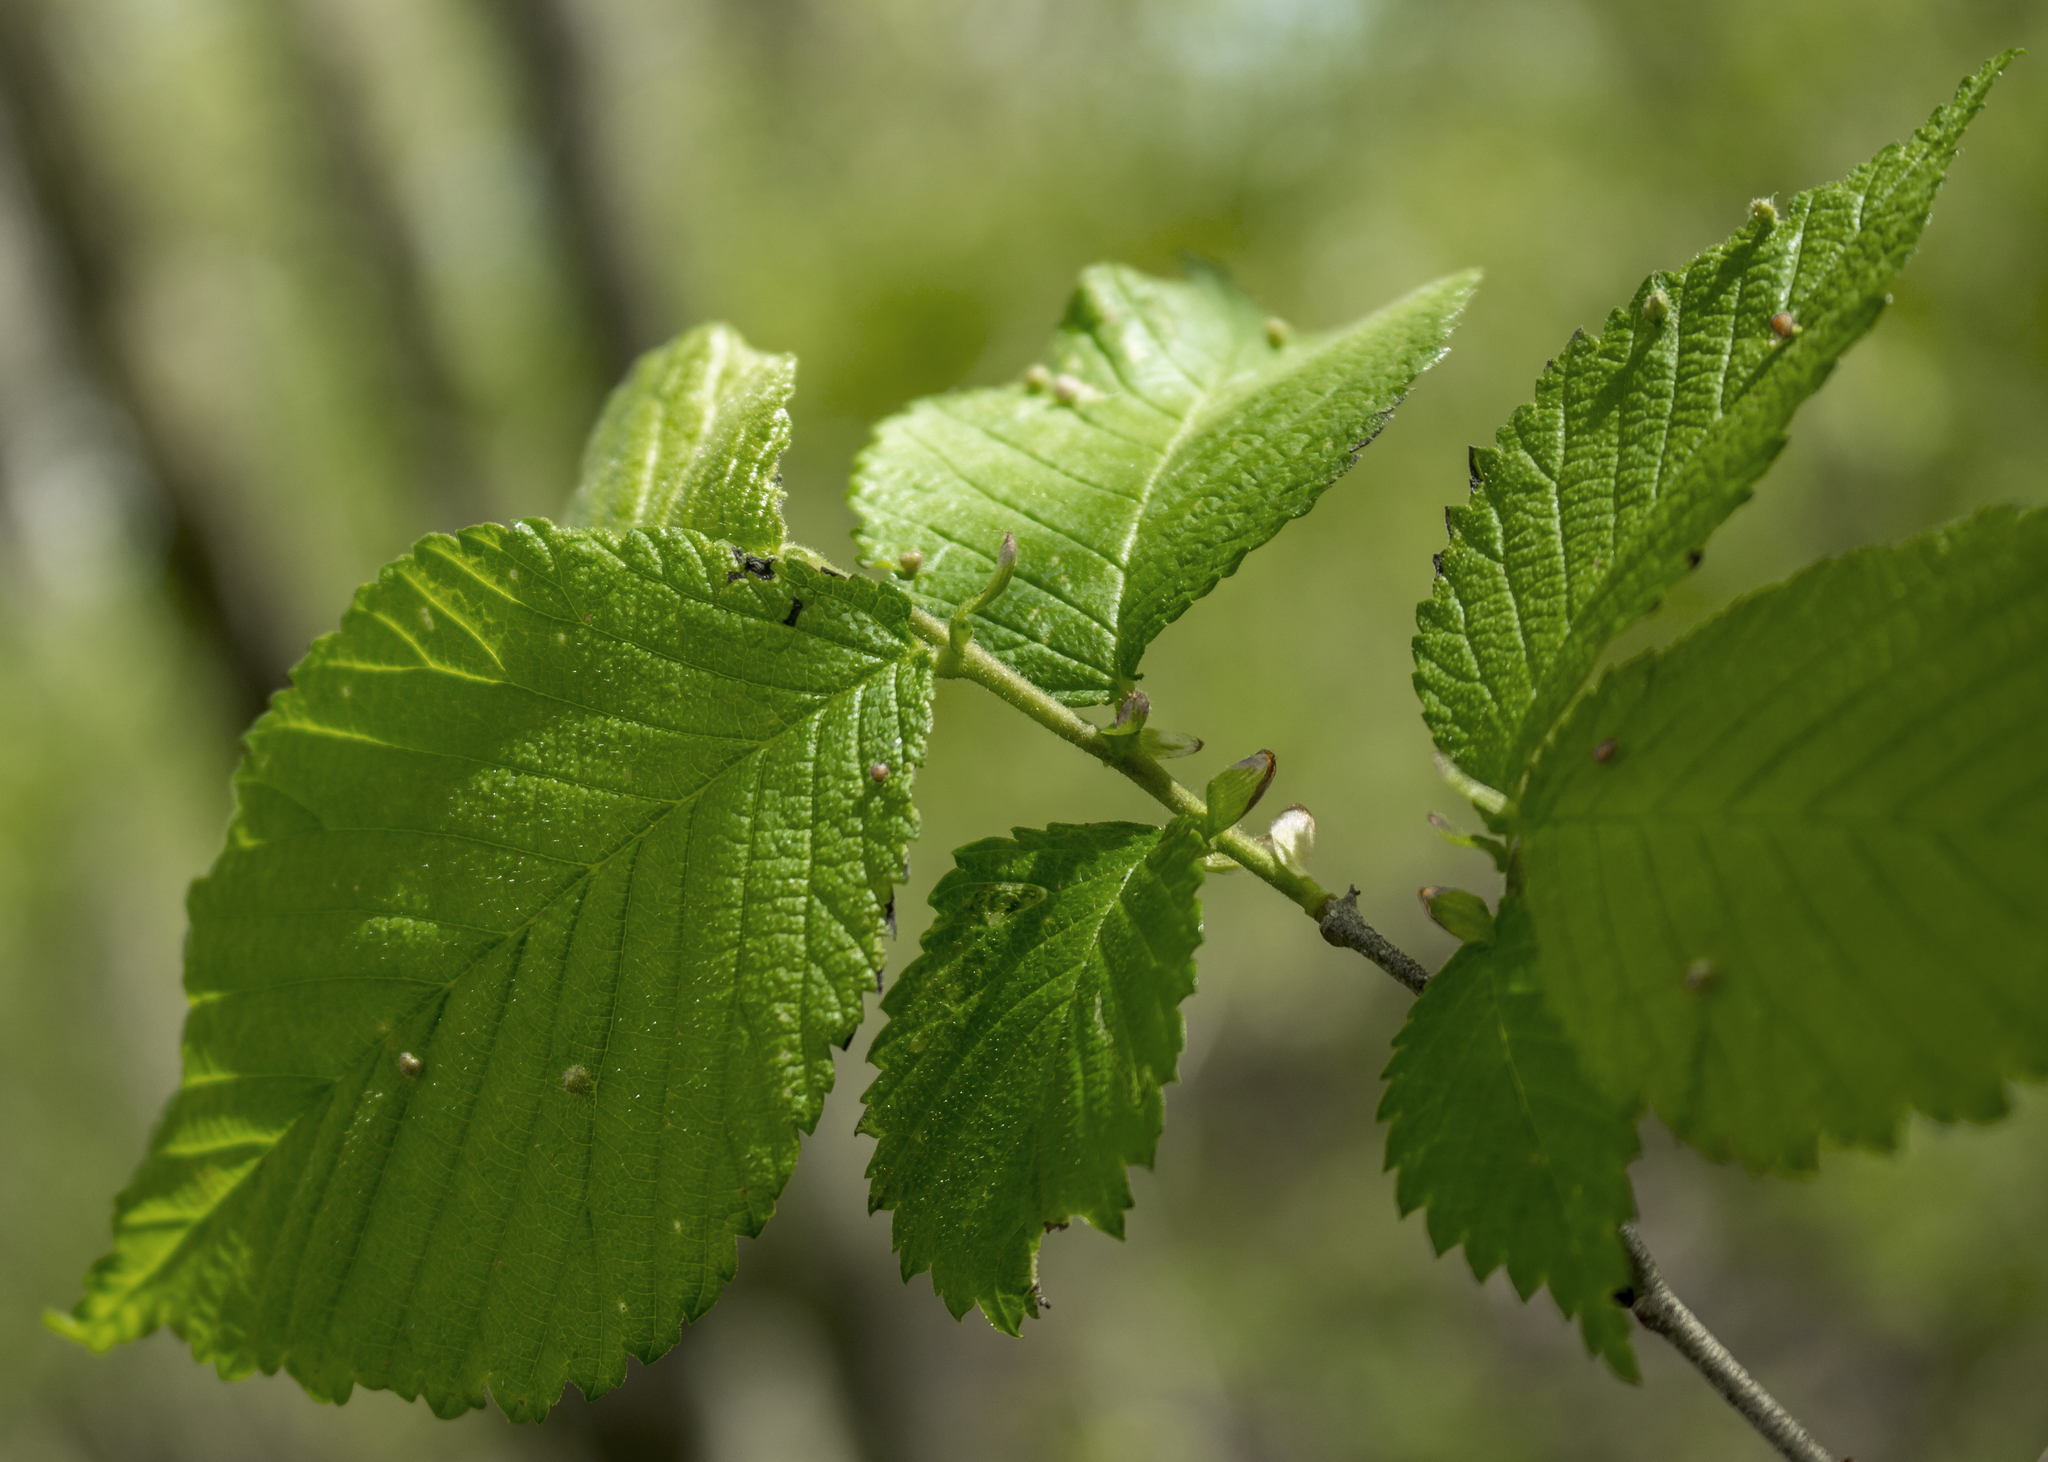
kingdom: Plantae
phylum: Tracheophyta
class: Magnoliopsida
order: Rosales
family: Ulmaceae
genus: Ulmus
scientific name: Ulmus rubra
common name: Slippery elm
